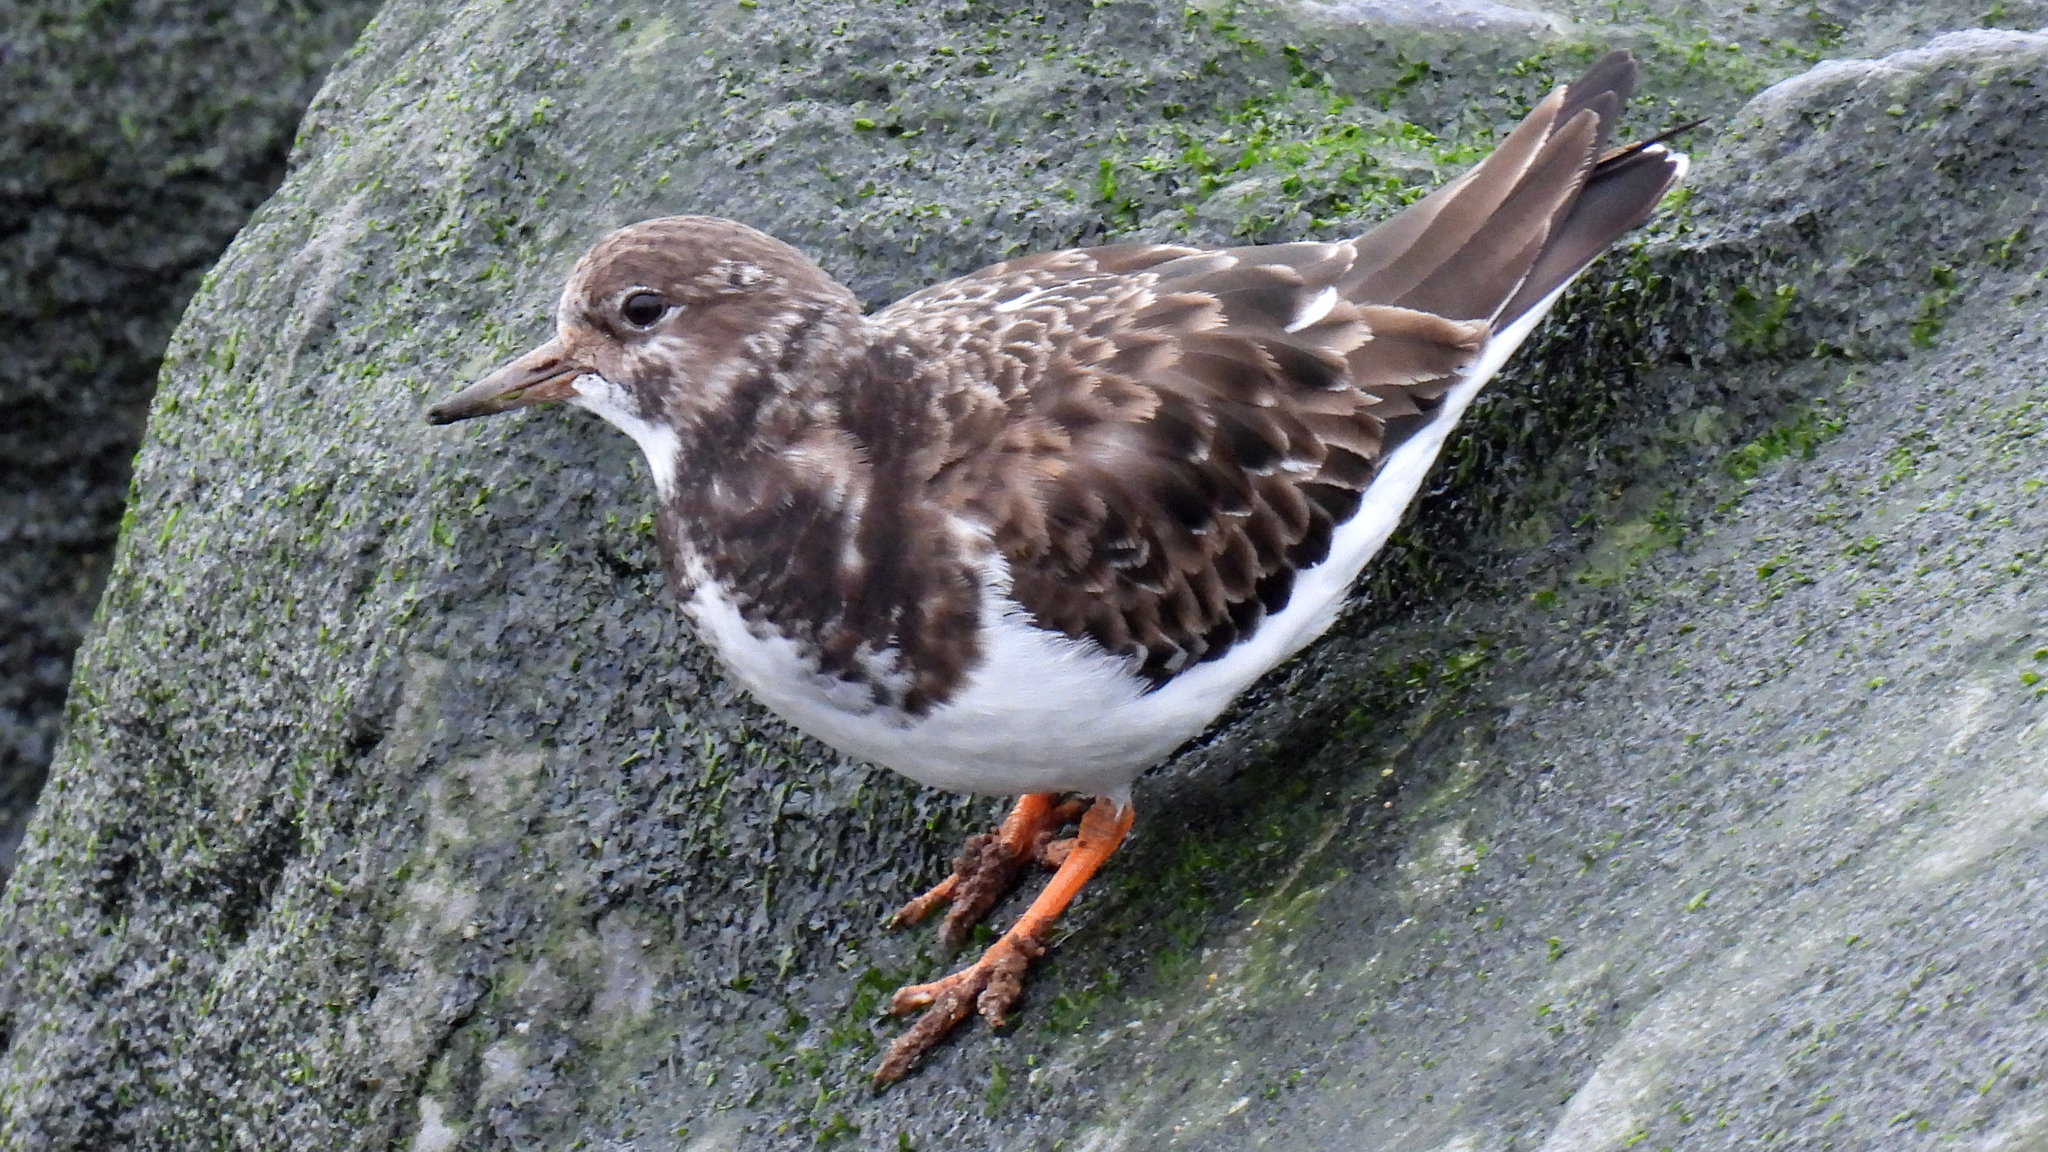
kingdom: Animalia
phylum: Chordata
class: Aves
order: Charadriiformes
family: Scolopacidae
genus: Arenaria
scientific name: Arenaria interpres
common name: Ruddy turnstone
